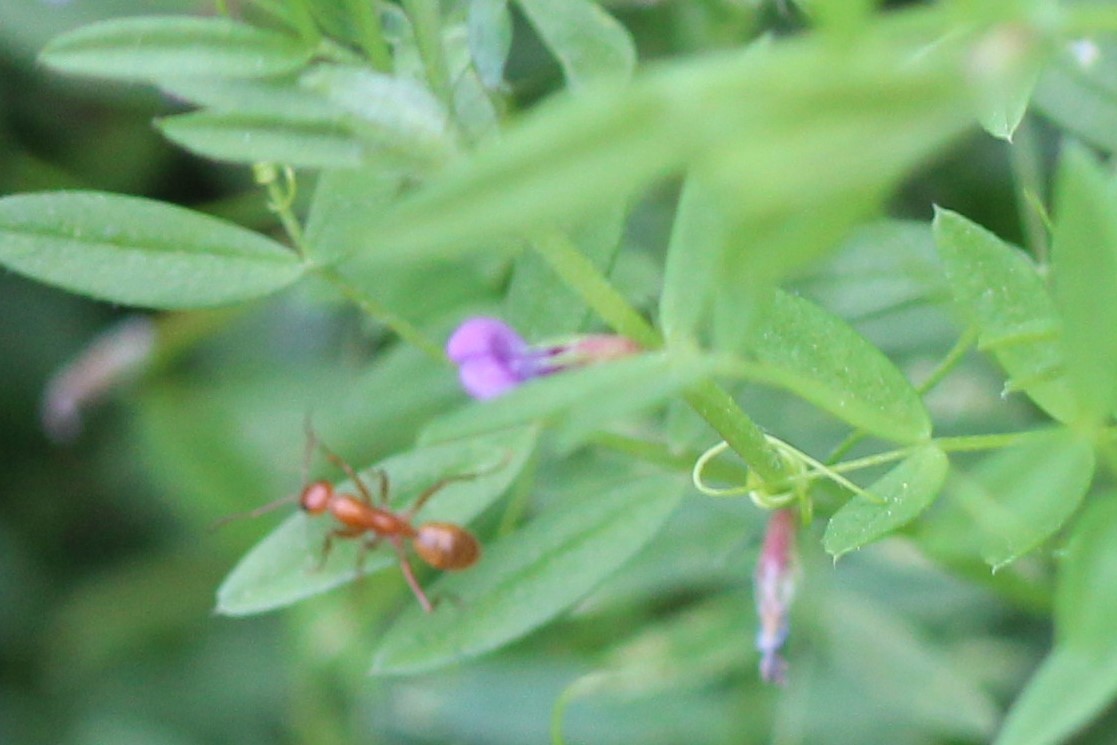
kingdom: Animalia
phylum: Arthropoda
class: Insecta
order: Hymenoptera
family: Formicidae
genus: Formica
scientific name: Formica
